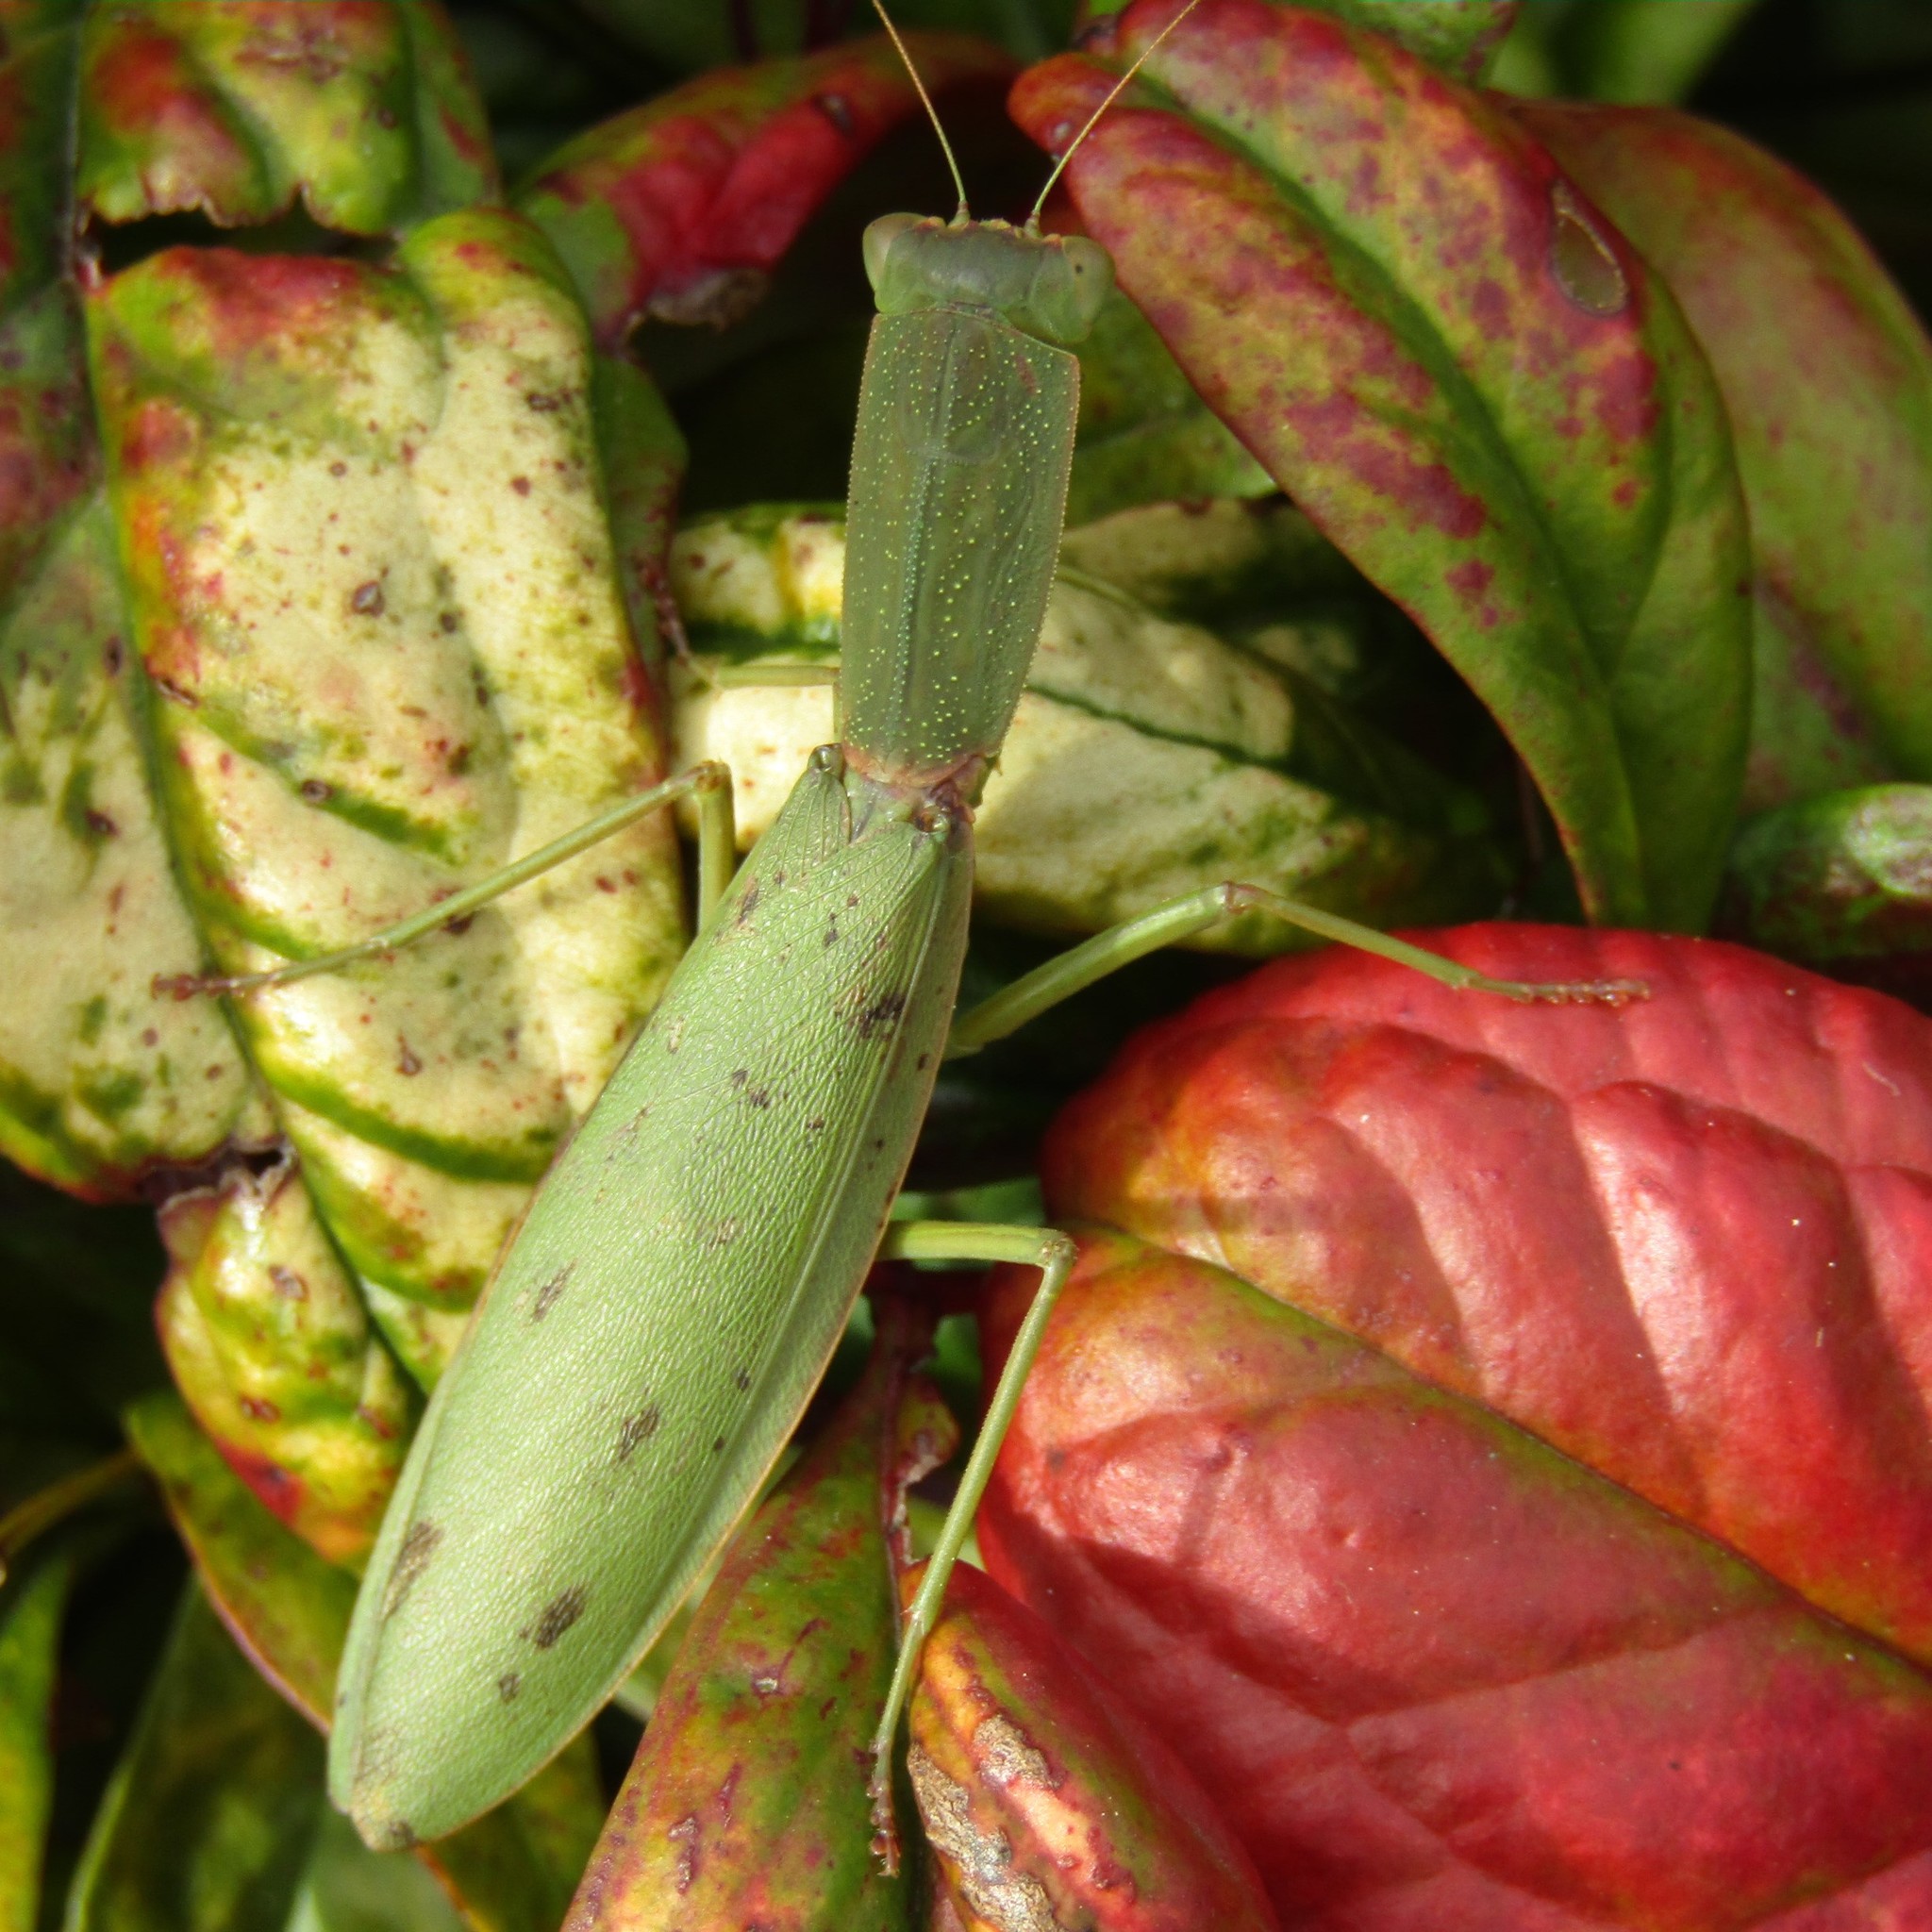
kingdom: Animalia
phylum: Arthropoda
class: Insecta
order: Mantodea
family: Mantidae
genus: Orthodera
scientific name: Orthodera novaezealandiae
